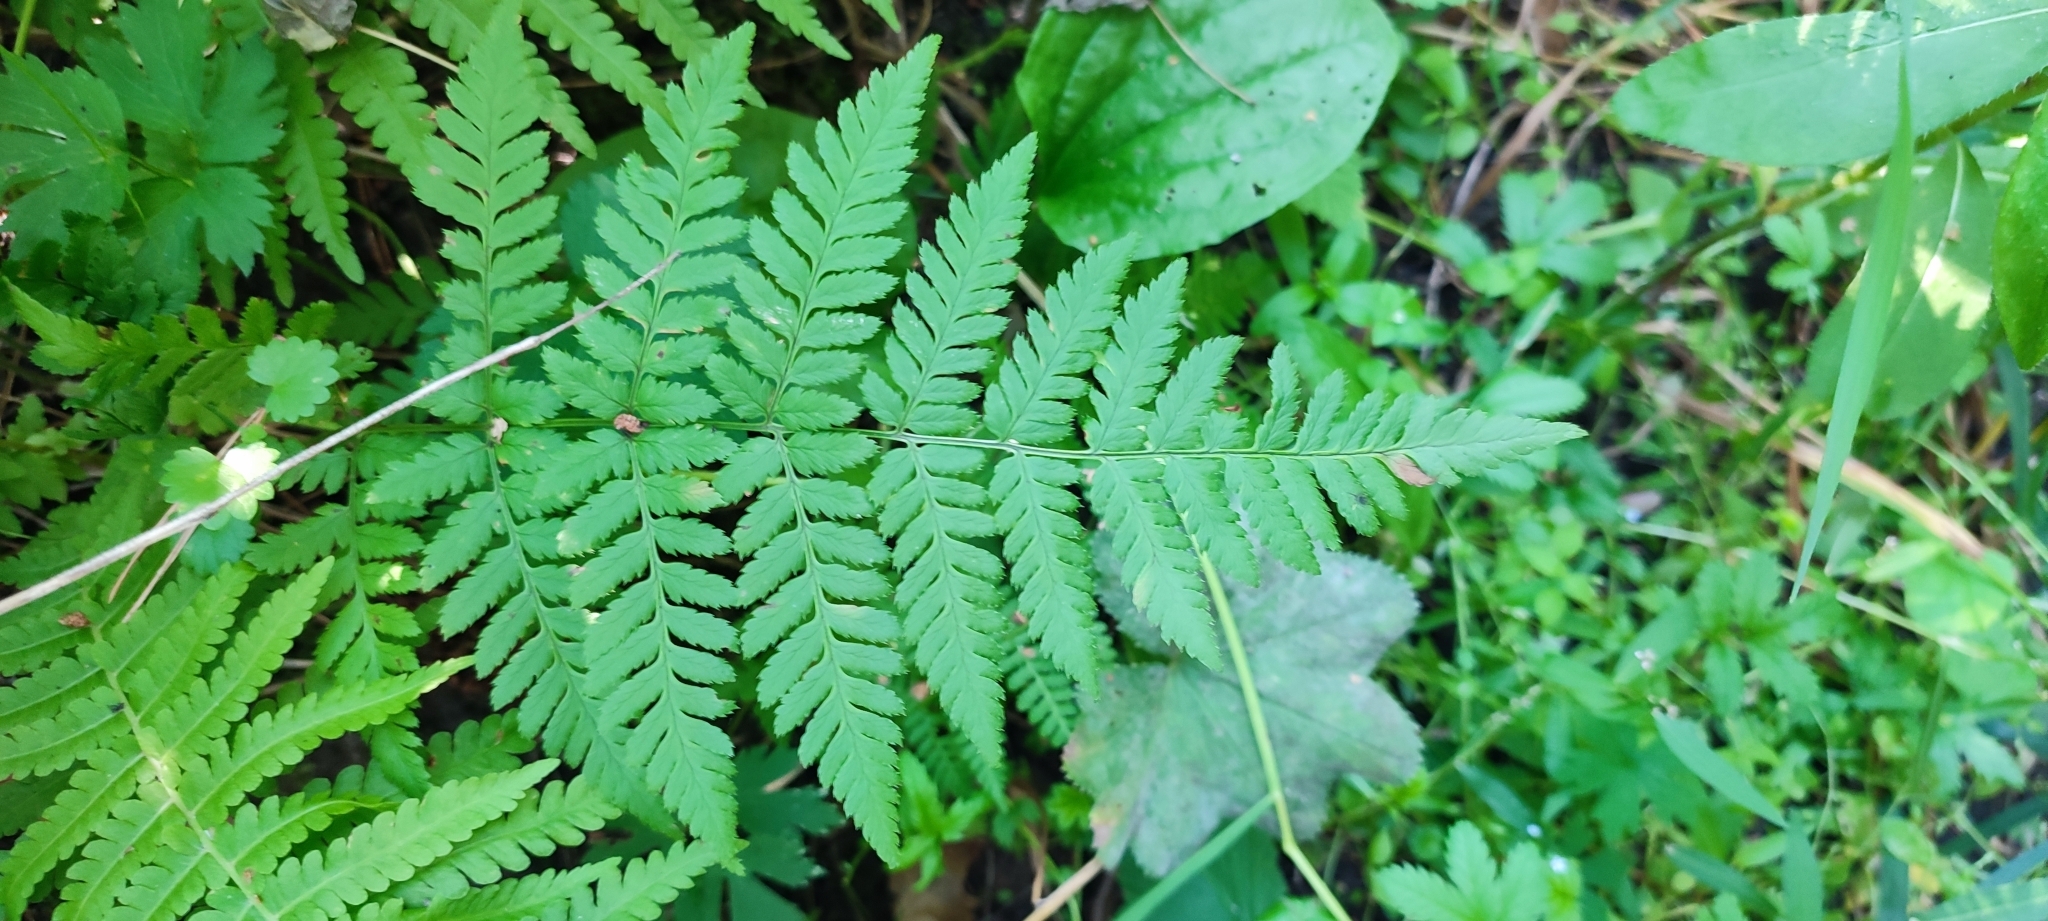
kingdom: Plantae
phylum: Tracheophyta
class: Polypodiopsida
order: Polypodiales
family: Dryopteridaceae
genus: Dryopteris
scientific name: Dryopteris carthusiana
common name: Narrow buckler-fern
